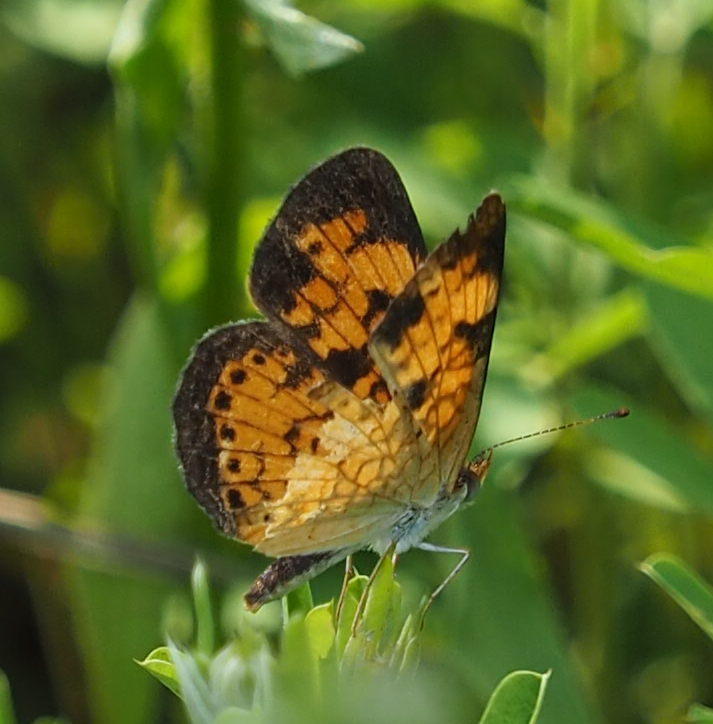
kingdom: Animalia
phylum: Arthropoda
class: Insecta
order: Lepidoptera
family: Nymphalidae
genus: Phyciodes
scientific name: Phyciodes tharos
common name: Pearl crescent
